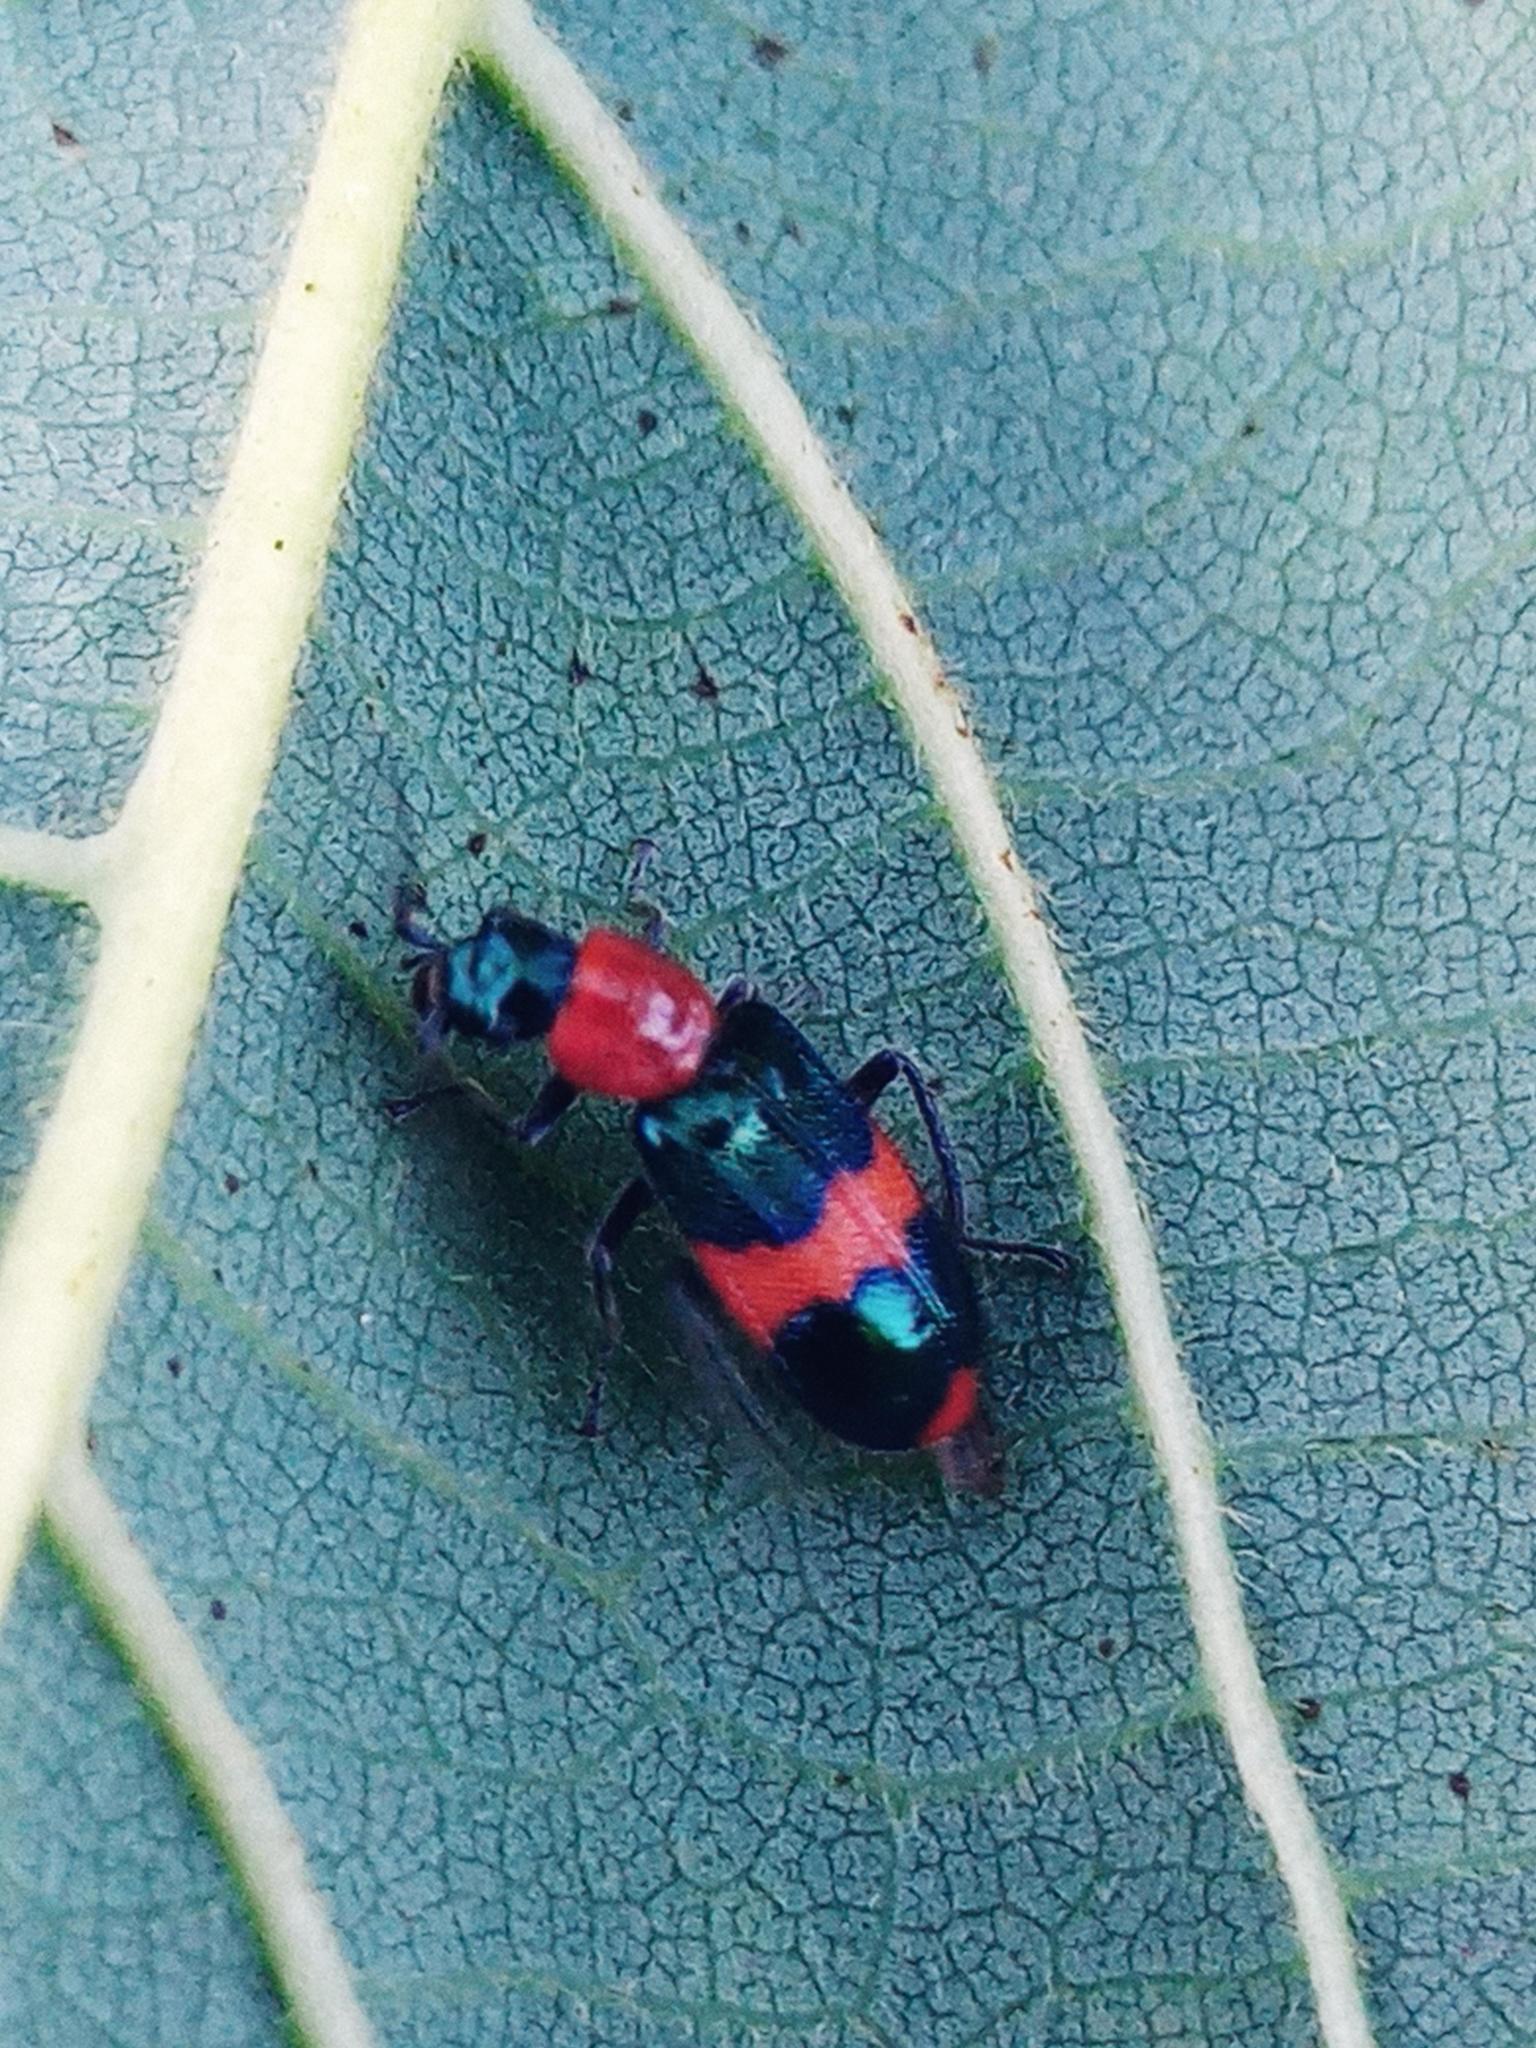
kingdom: Animalia
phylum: Arthropoda
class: Insecta
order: Coleoptera
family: Melyridae
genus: Dicranolaius
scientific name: Dicranolaius bellulus
